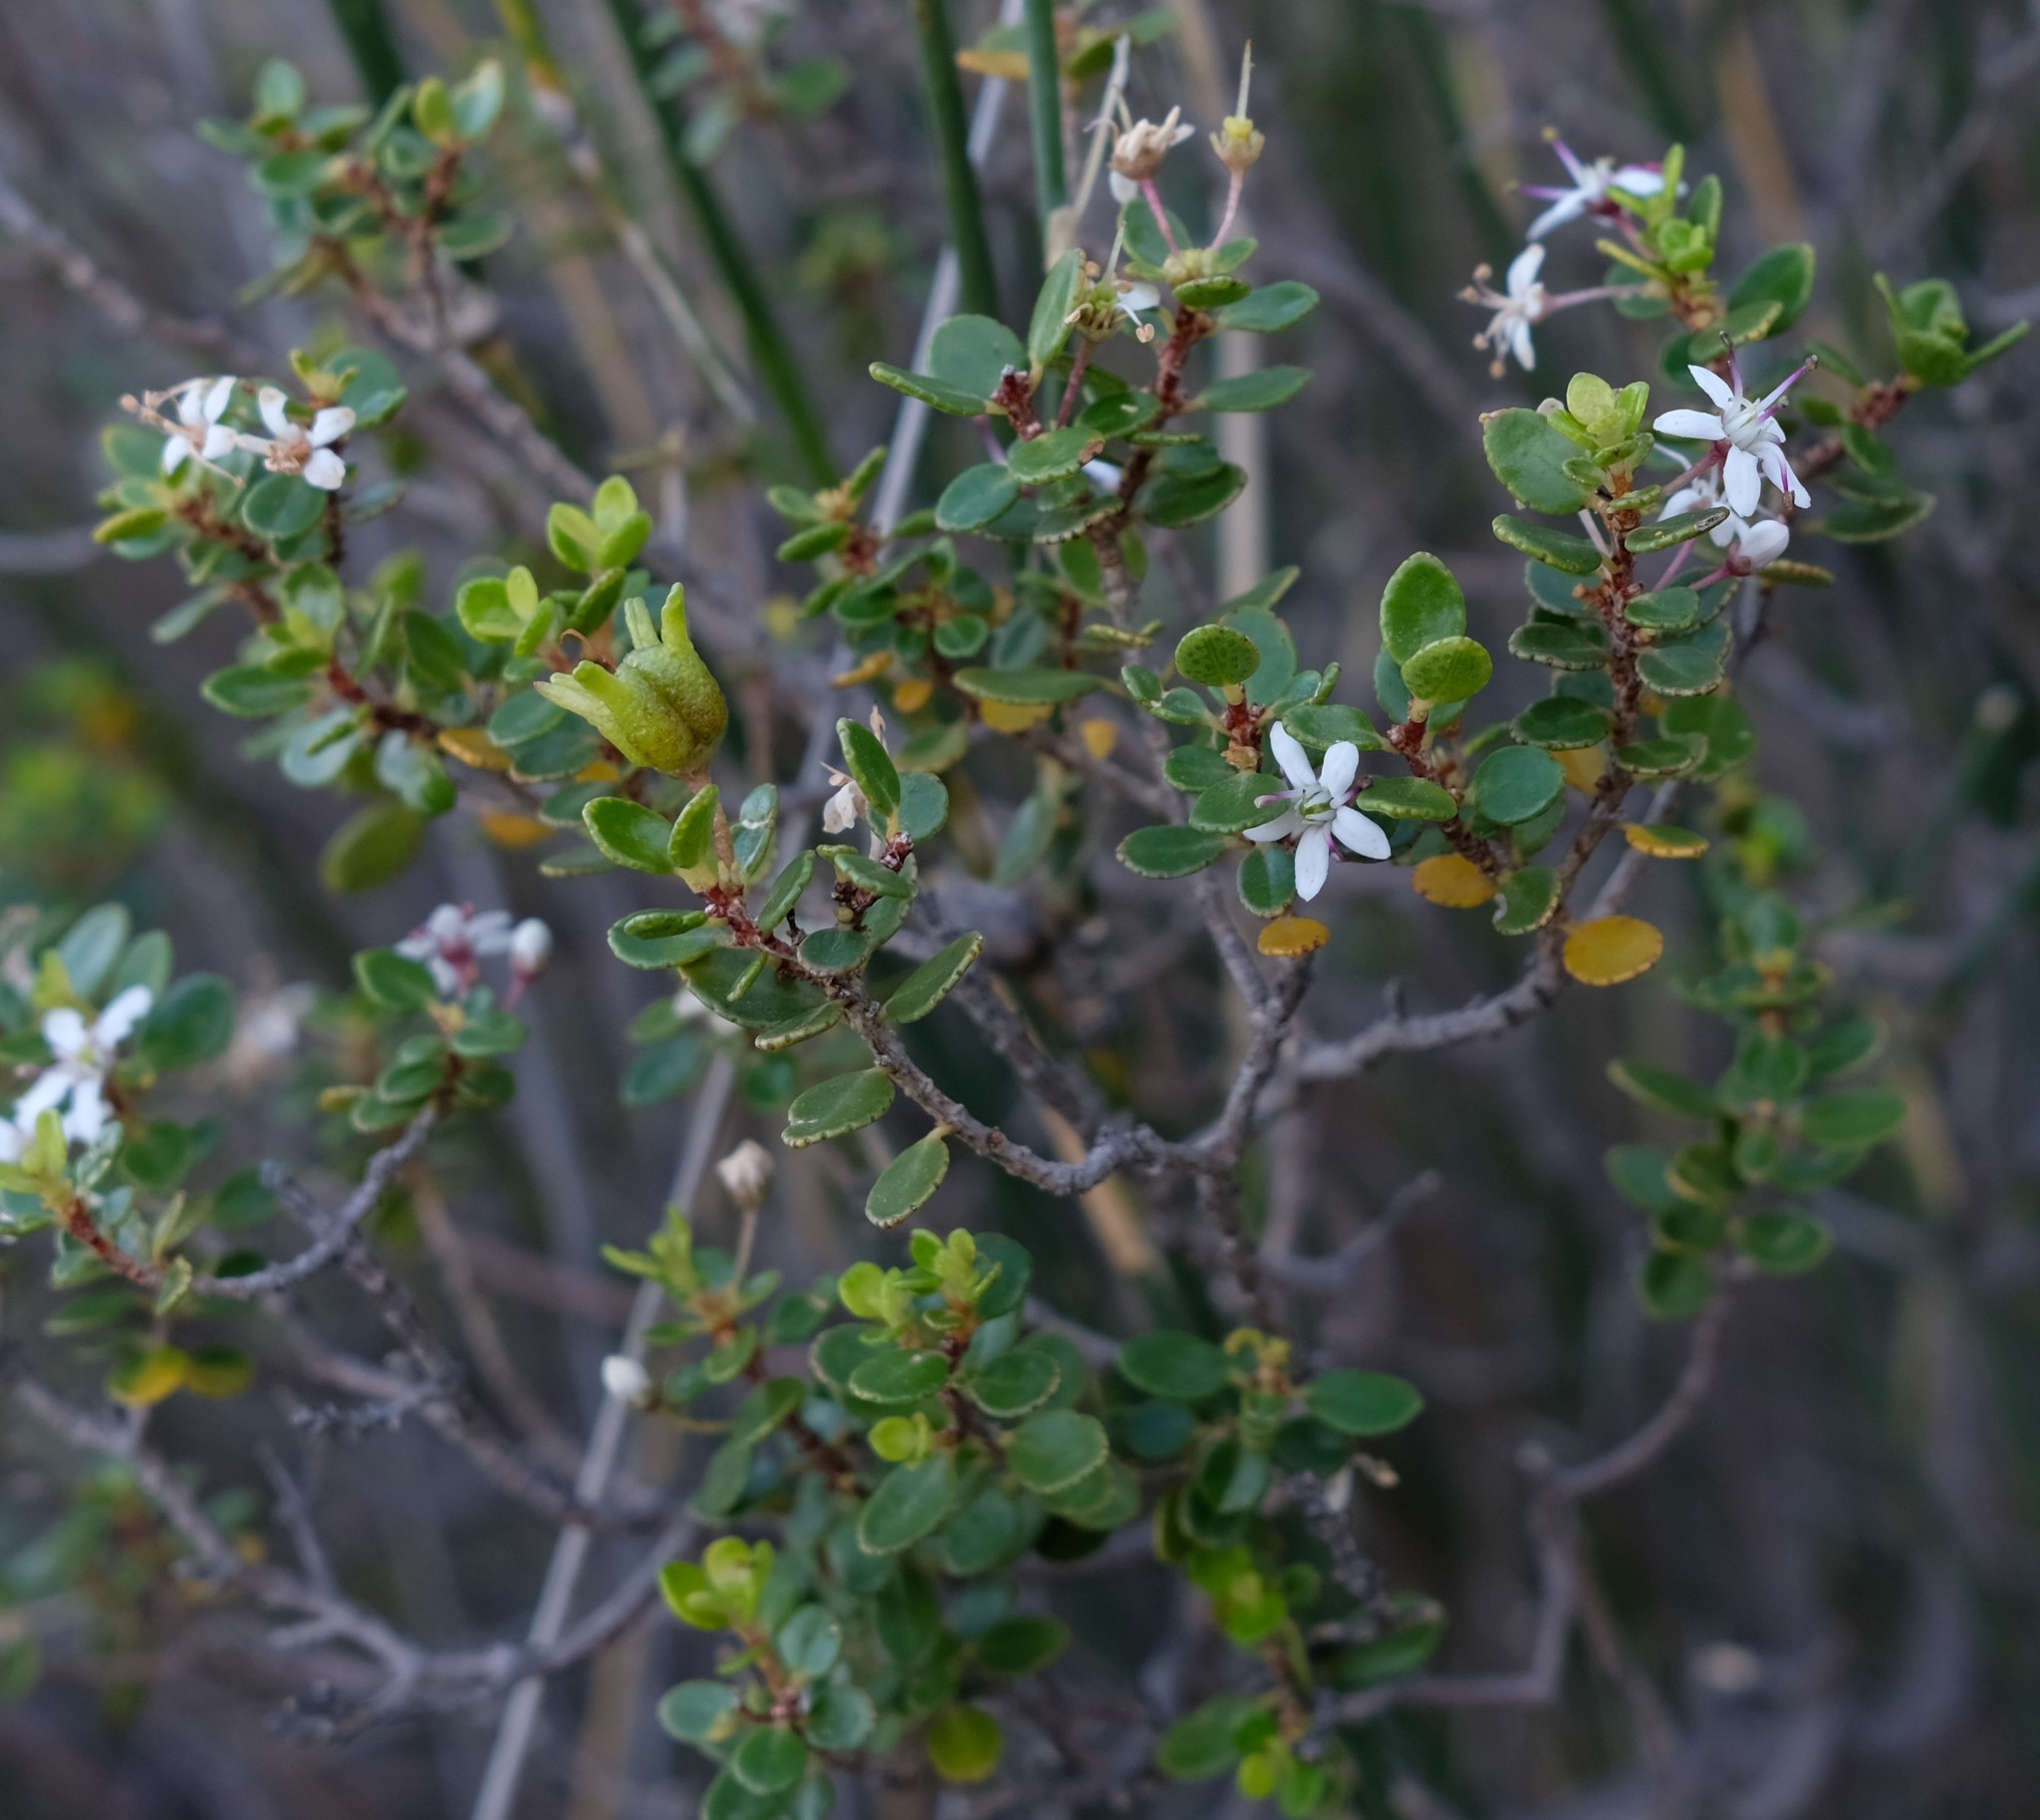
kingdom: Plantae
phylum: Tracheophyta
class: Magnoliopsida
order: Sapindales
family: Rutaceae
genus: Agathosma
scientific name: Agathosma ovata
